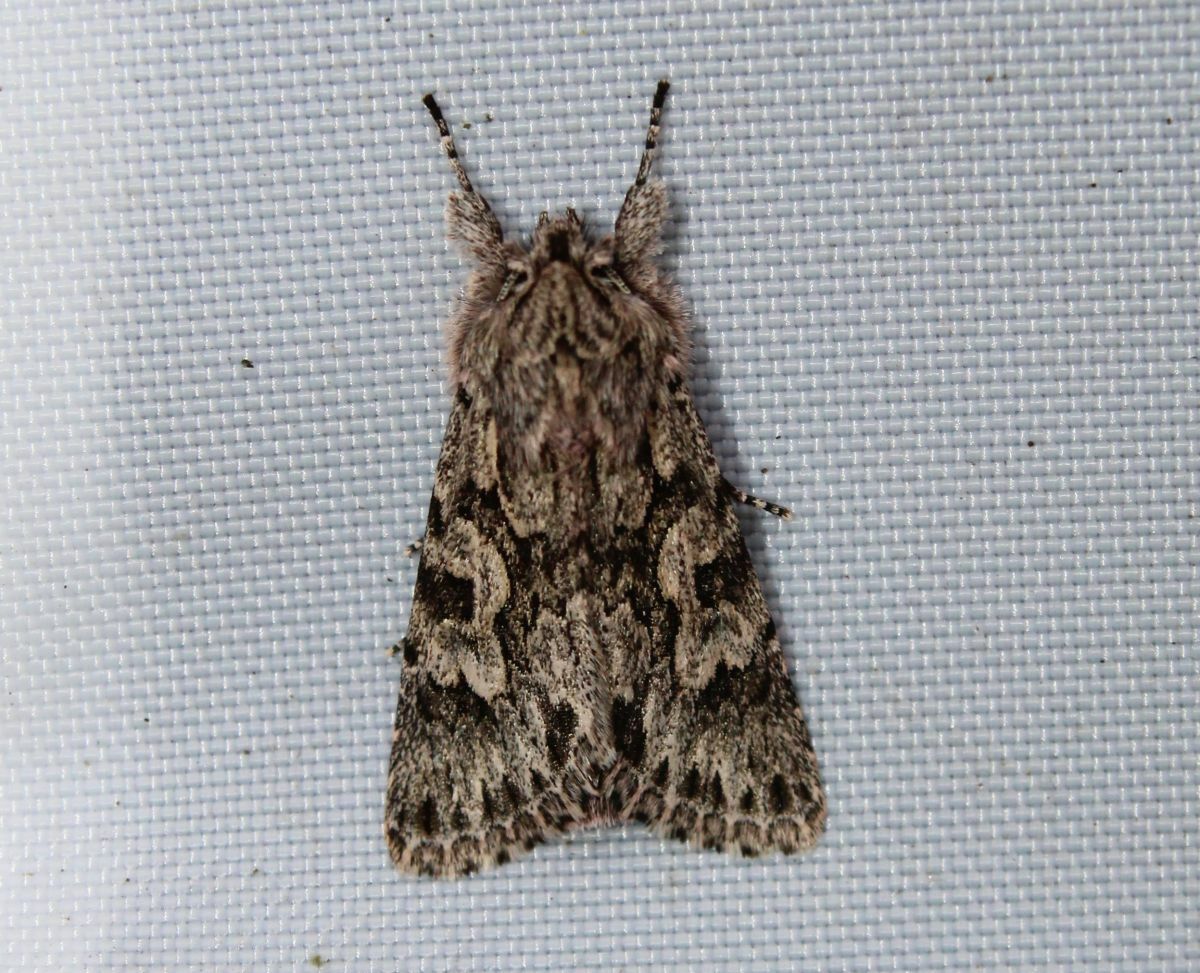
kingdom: Animalia
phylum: Arthropoda
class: Insecta
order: Lepidoptera
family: Noctuidae
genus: Xylocampa
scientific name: Xylocampa areola
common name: Early grey
